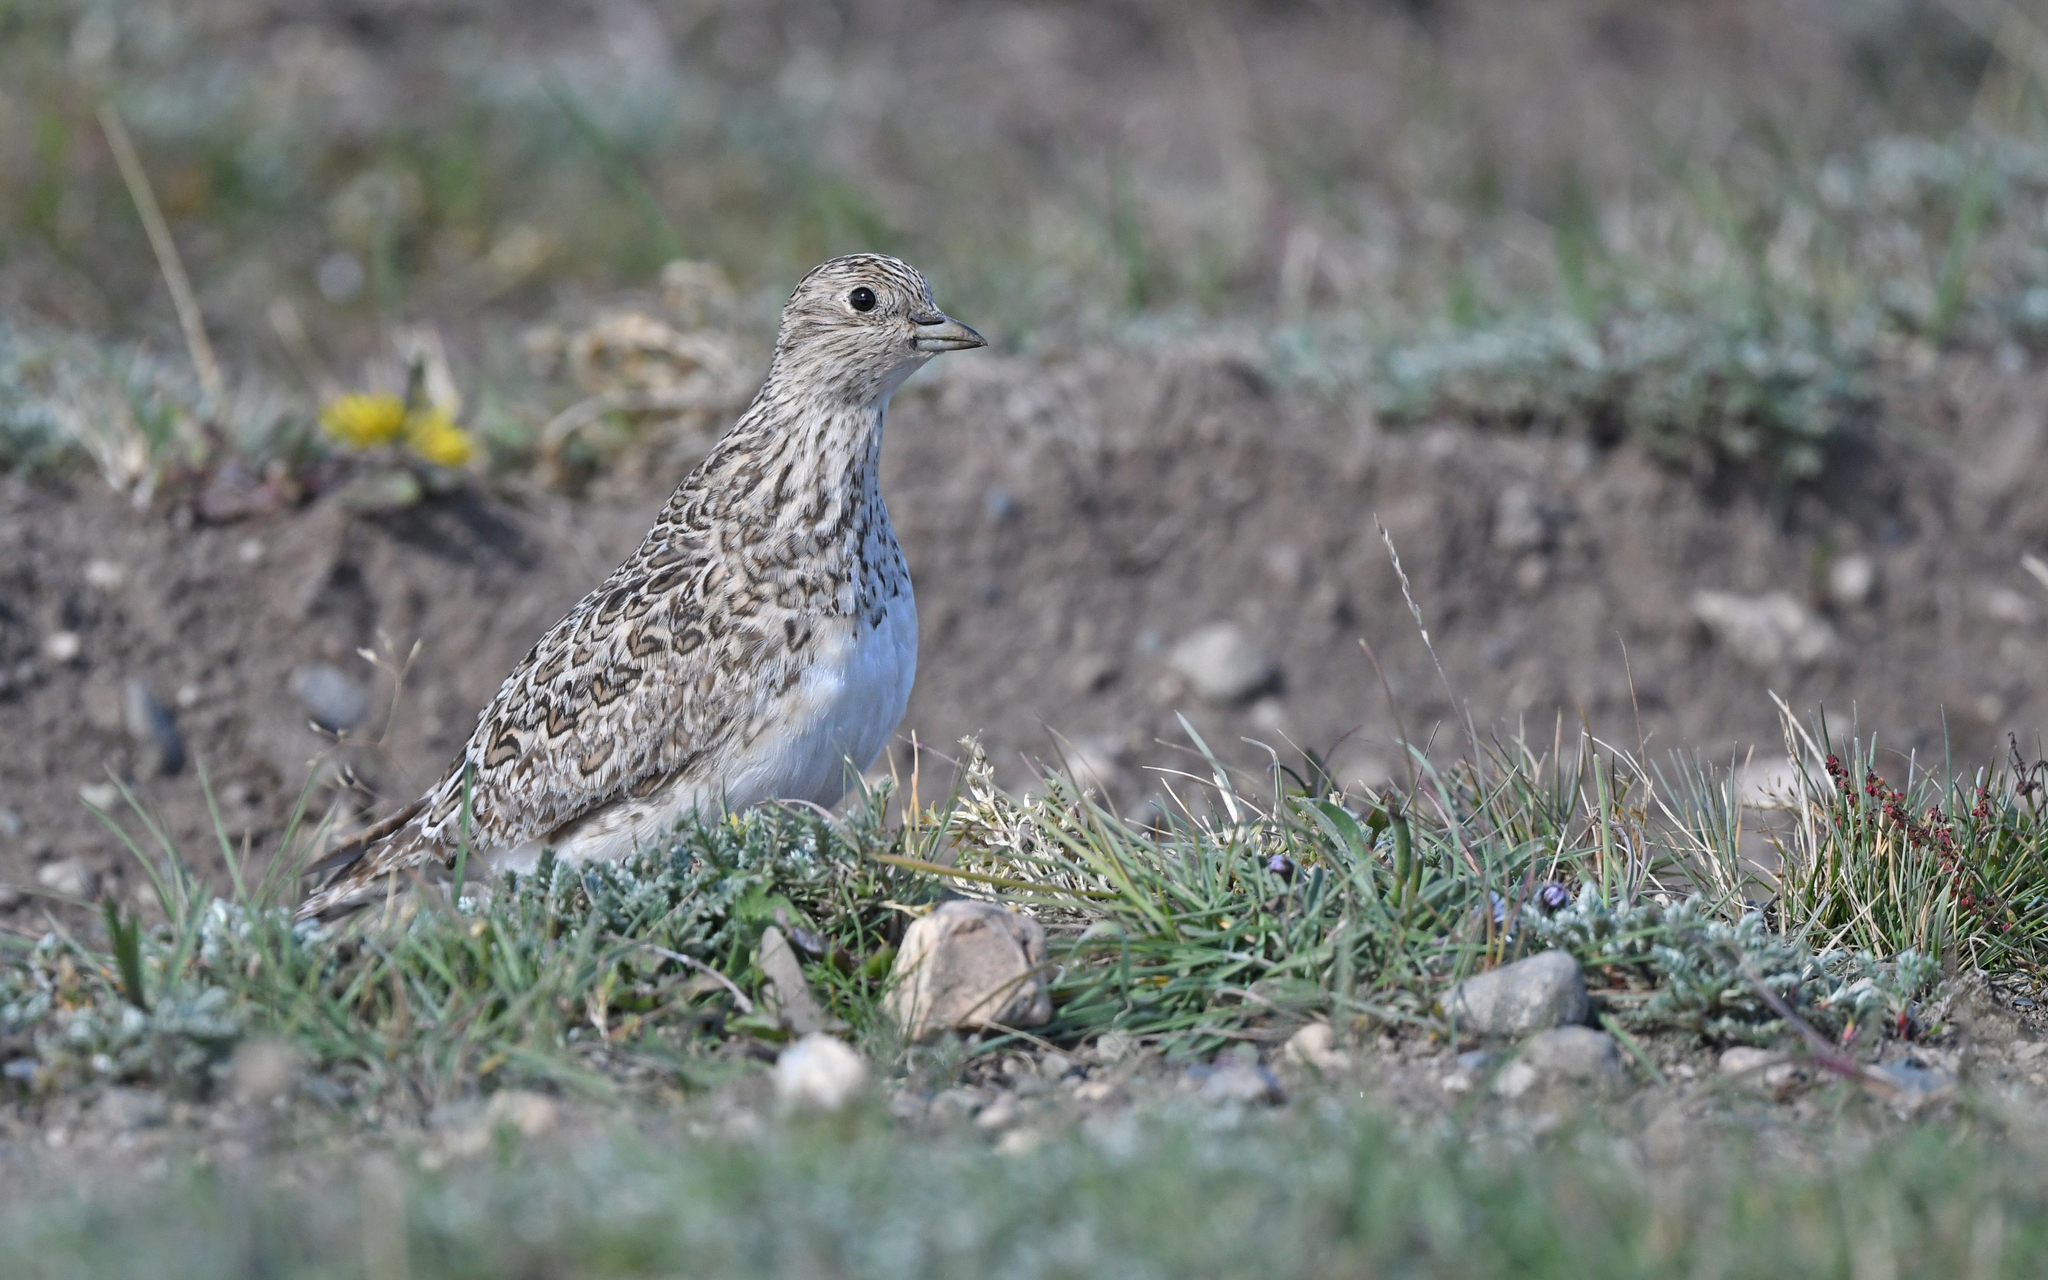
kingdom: Animalia
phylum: Chordata
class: Aves
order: Charadriiformes
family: Thinocoridae
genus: Thinocorus
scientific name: Thinocorus rumicivorus
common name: Least seedsnipe
